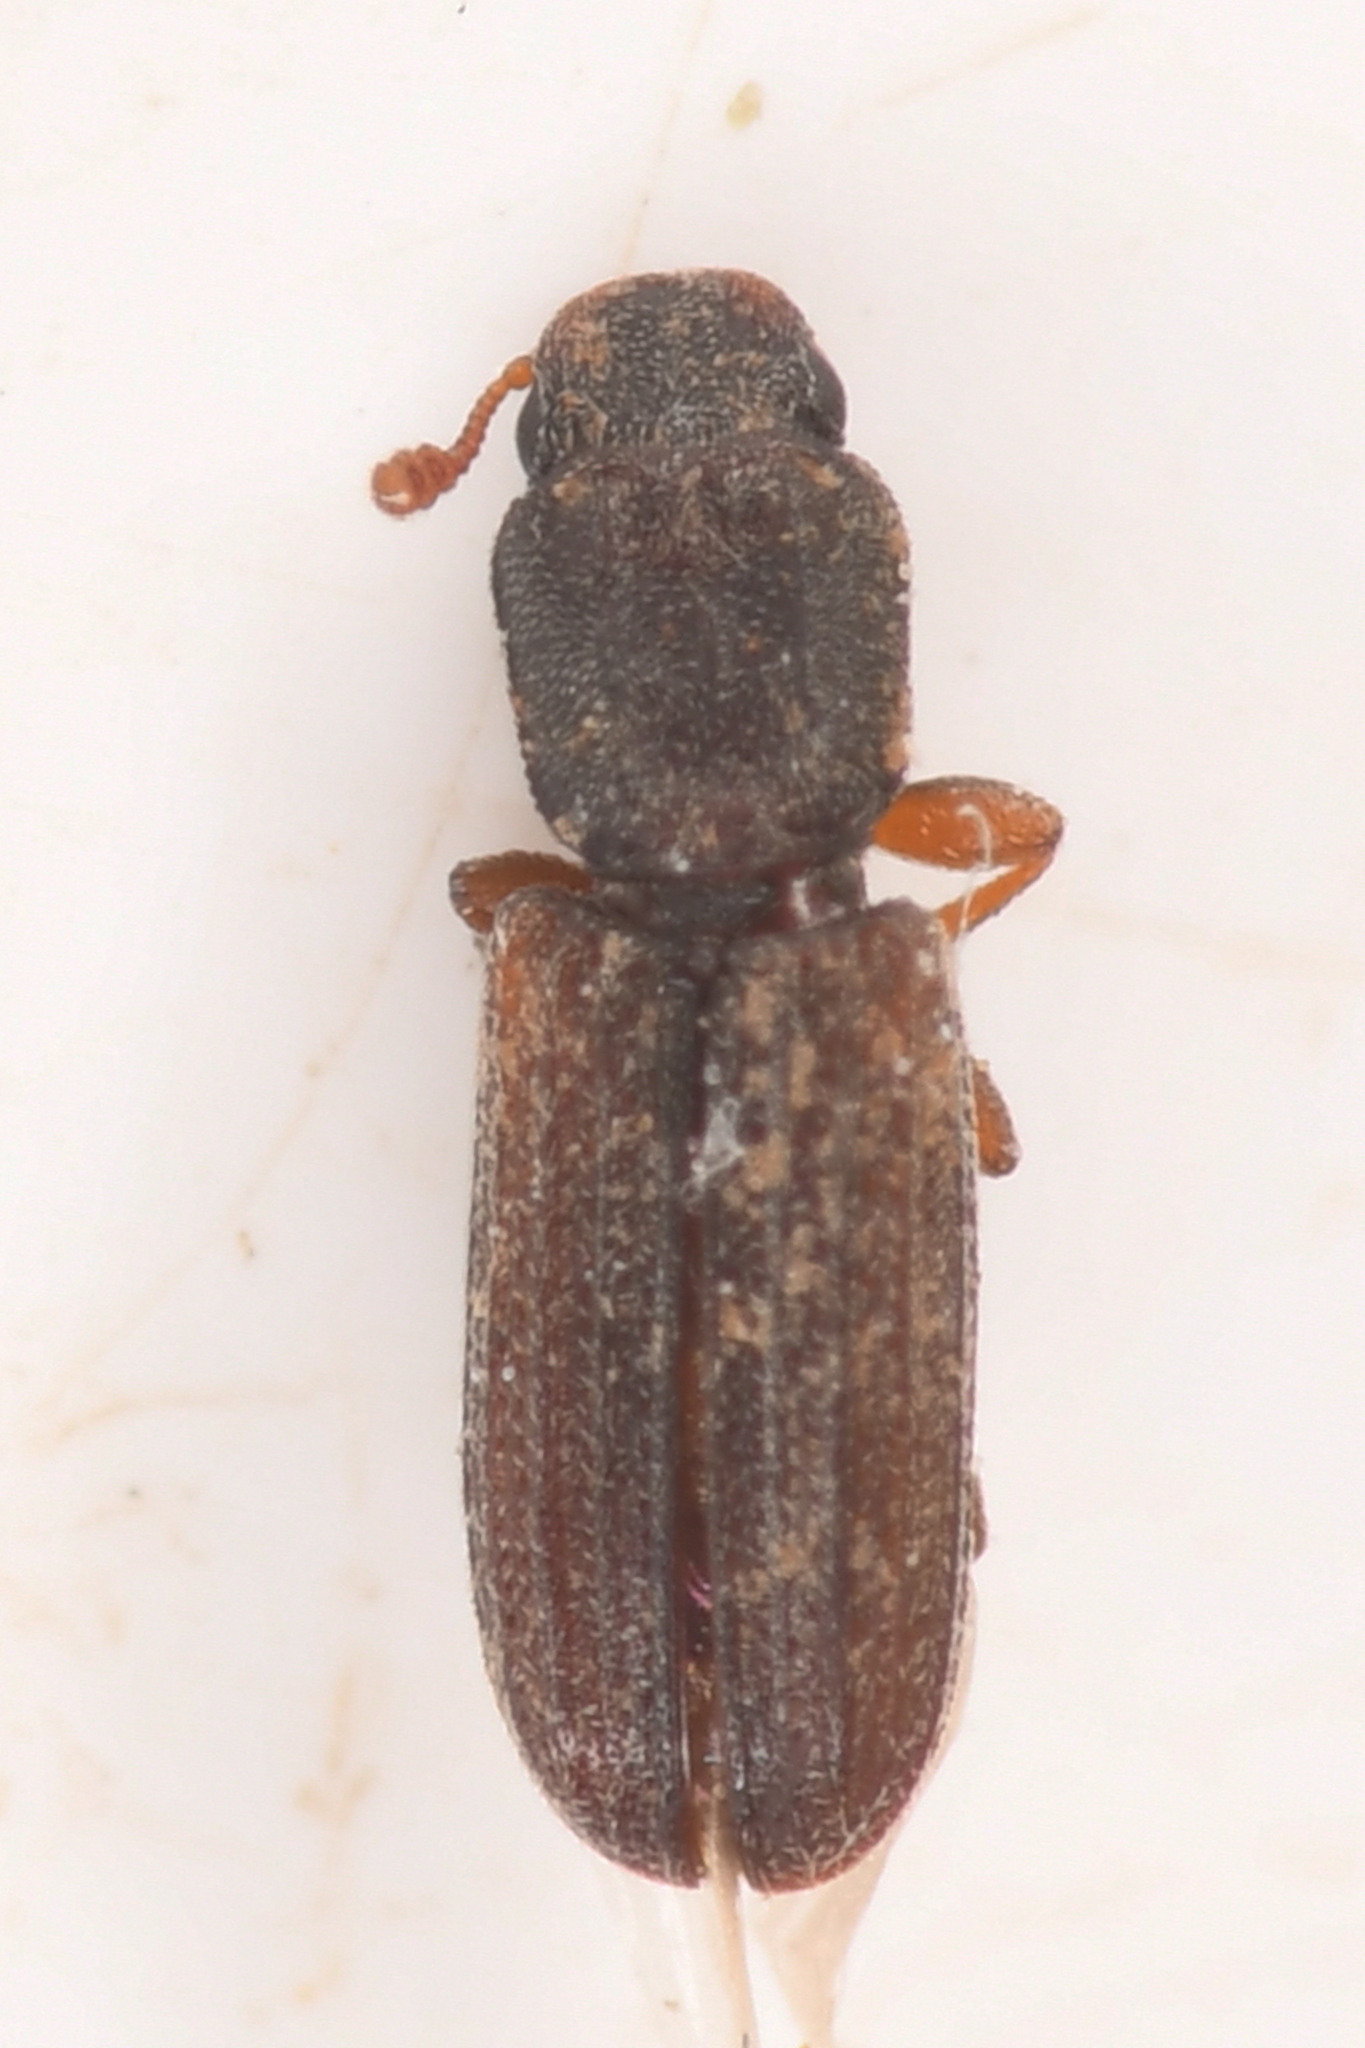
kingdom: Animalia
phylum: Arthropoda
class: Insecta
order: Coleoptera
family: Zopheridae
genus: Lasconotus
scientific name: Lasconotus subcostulatus
